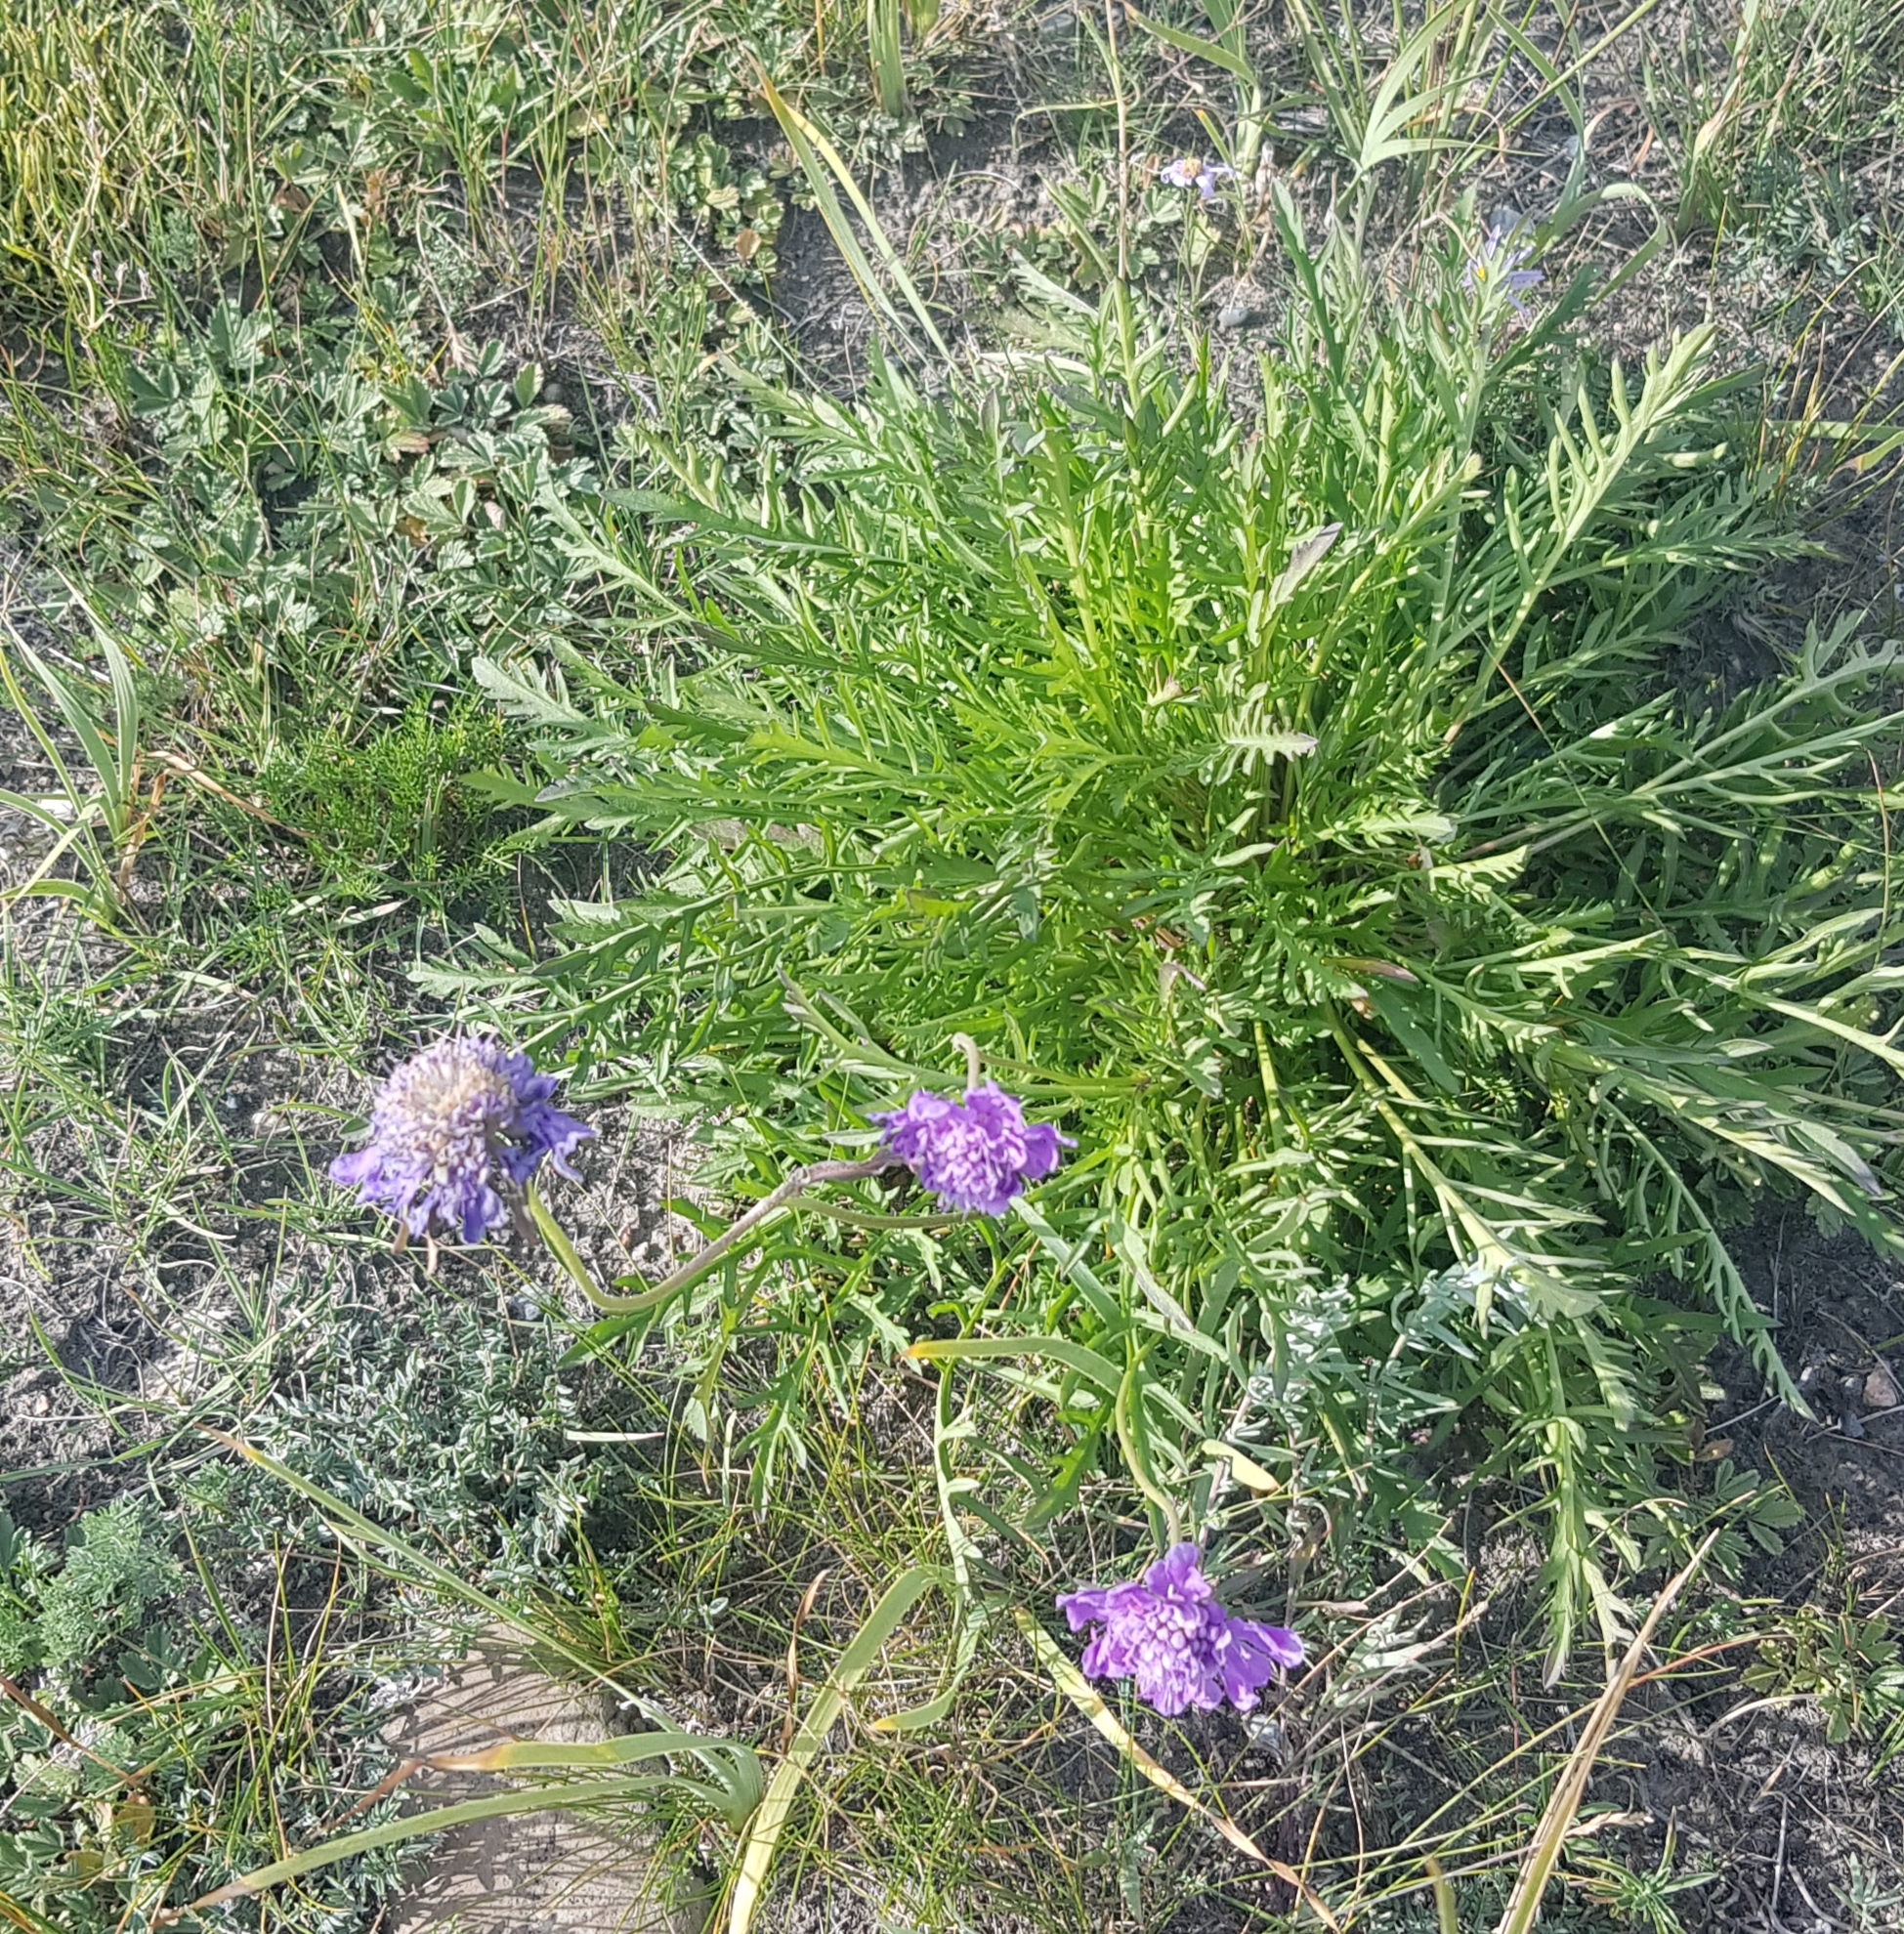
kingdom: Plantae
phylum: Tracheophyta
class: Magnoliopsida
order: Dipsacales
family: Caprifoliaceae
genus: Scabiosa
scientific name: Scabiosa comosa
